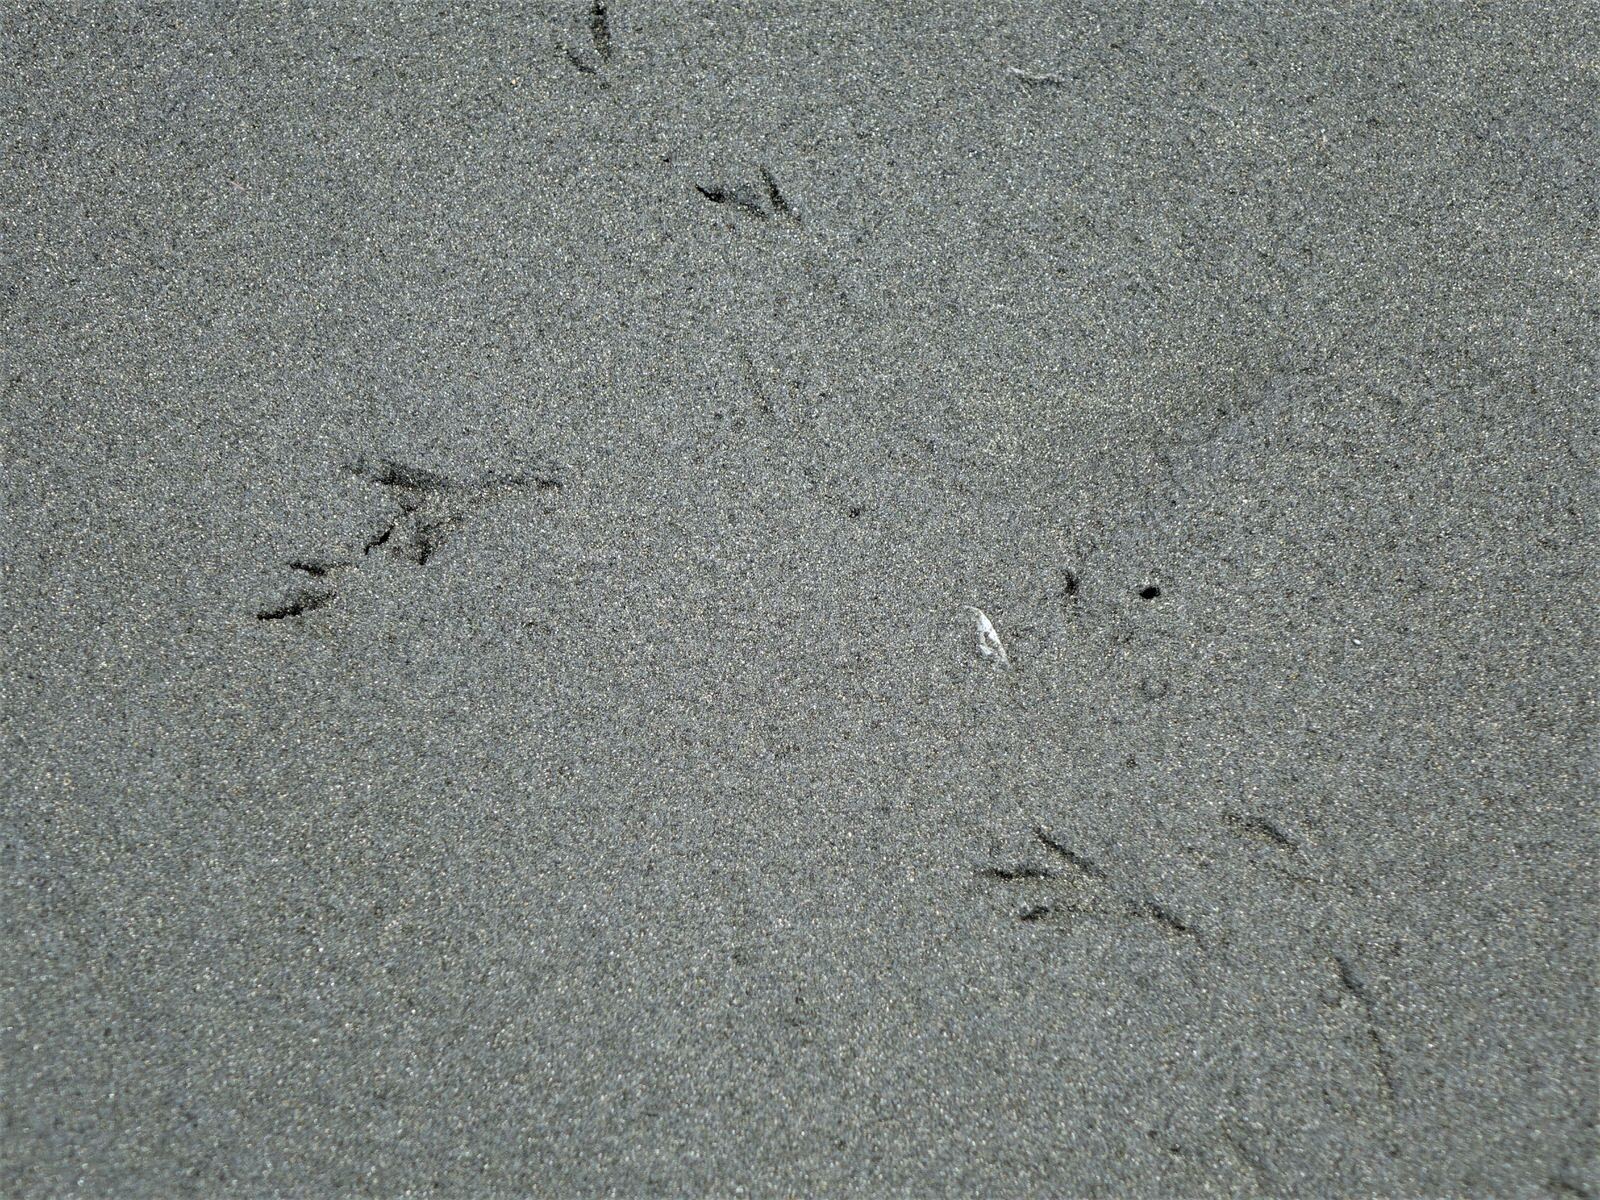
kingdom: Animalia
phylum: Chordata
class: Aves
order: Passeriformes
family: Motacillidae
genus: Anthus
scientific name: Anthus novaeseelandiae
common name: New zealand pipit
